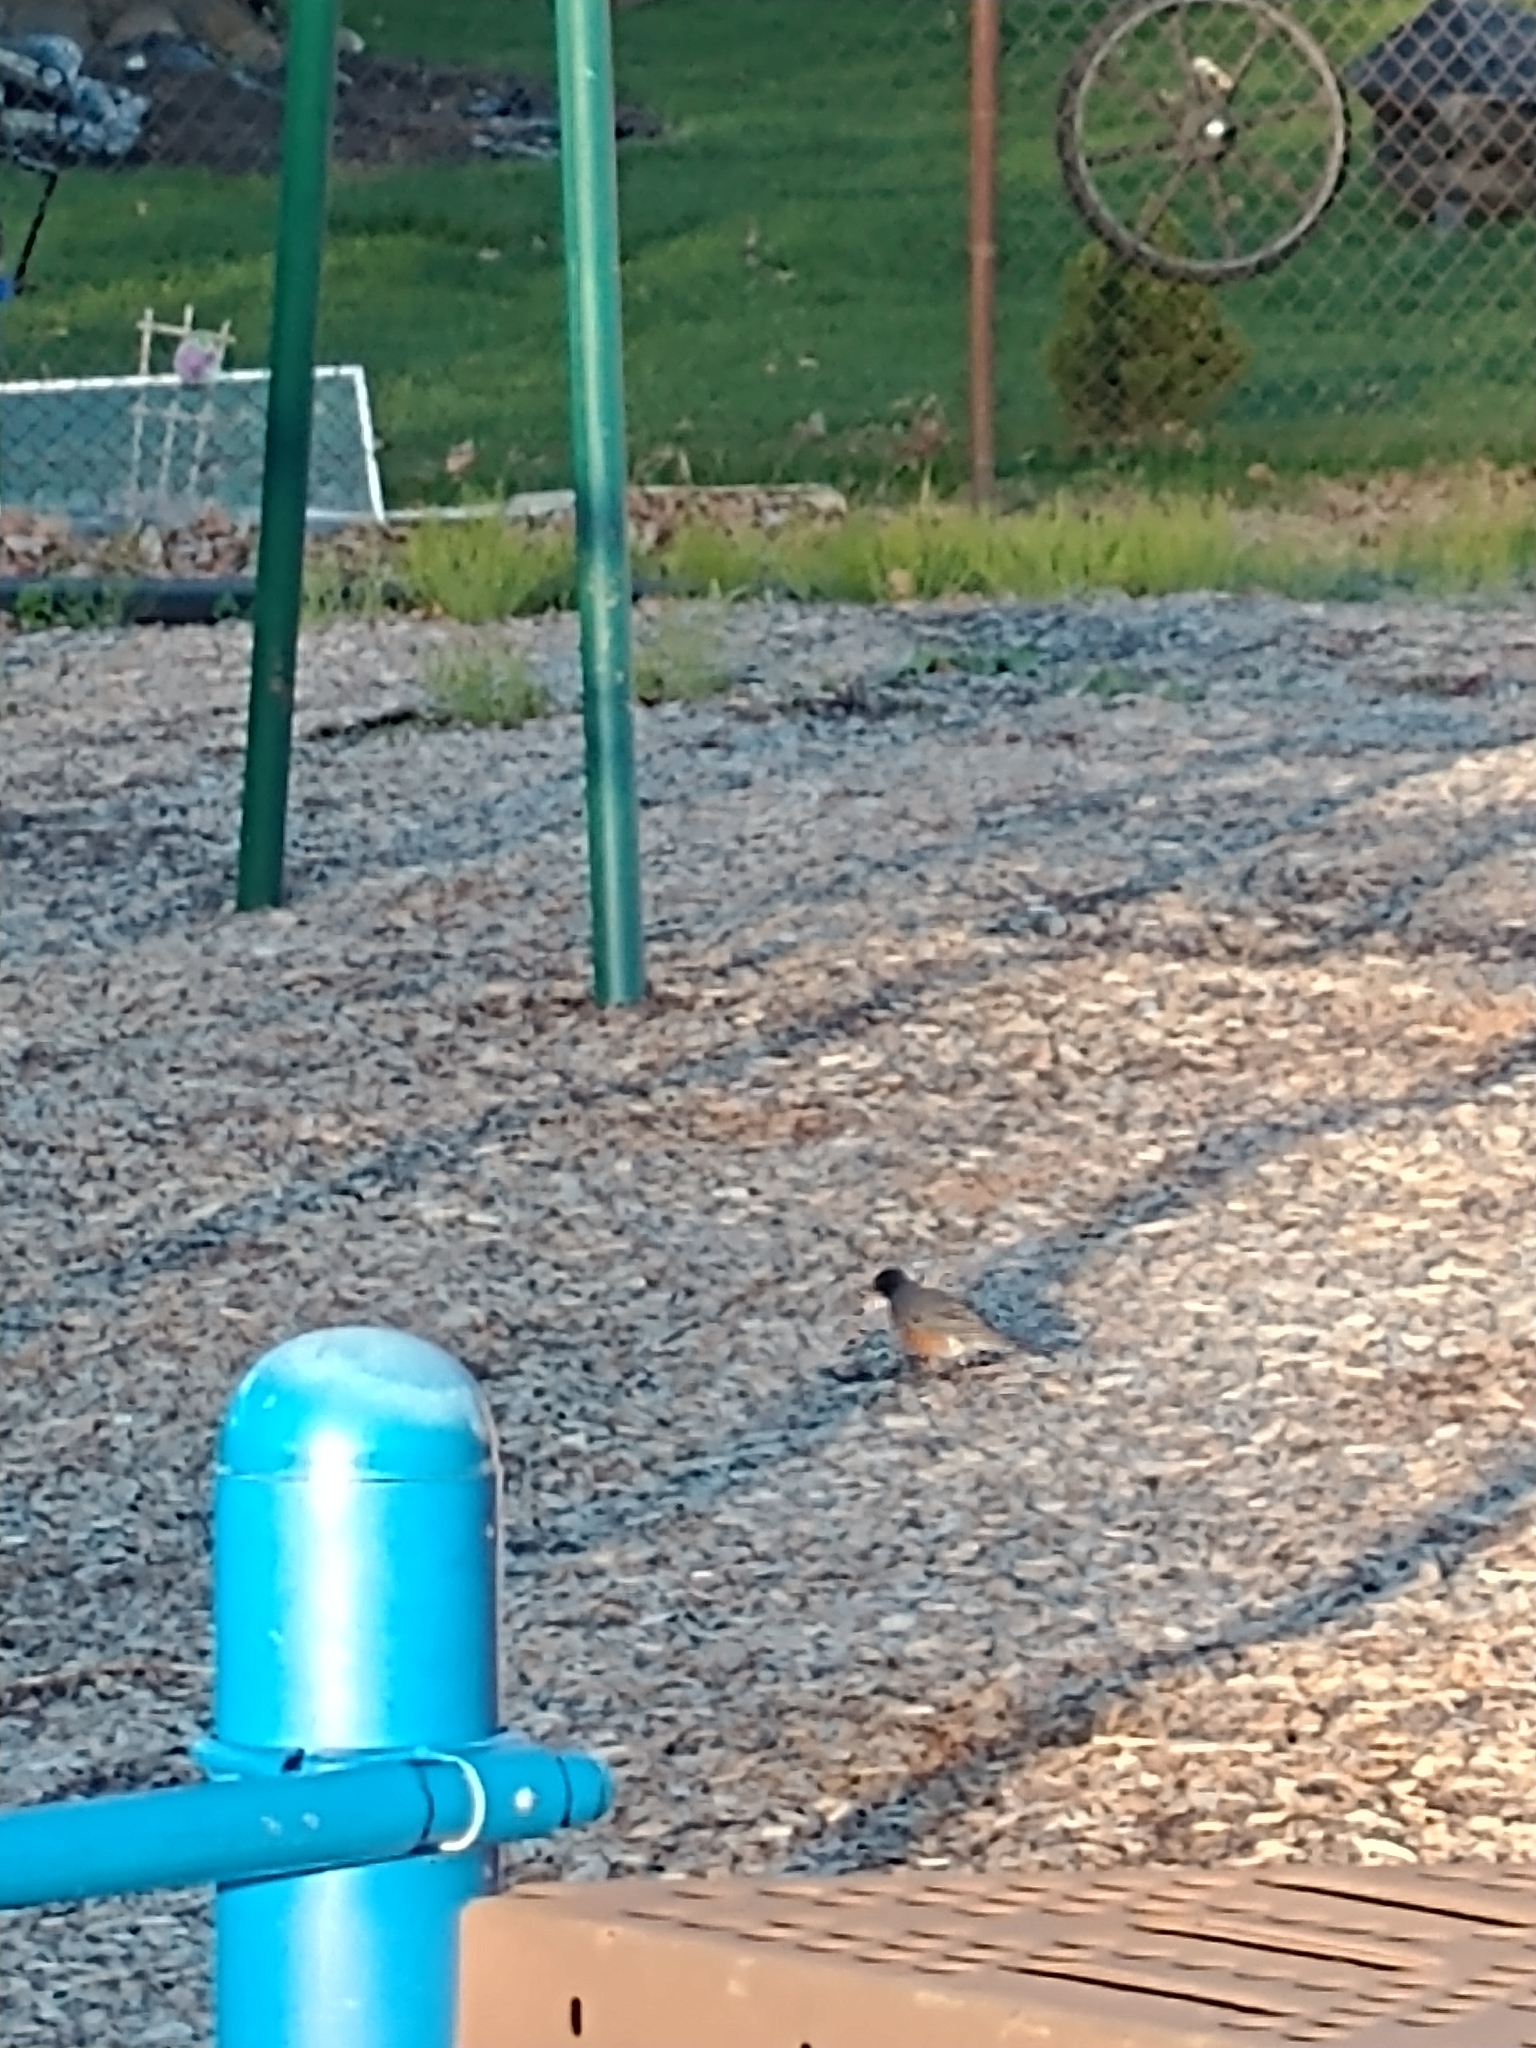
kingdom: Animalia
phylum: Chordata
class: Aves
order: Passeriformes
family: Turdidae
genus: Turdus
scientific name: Turdus migratorius
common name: American robin
